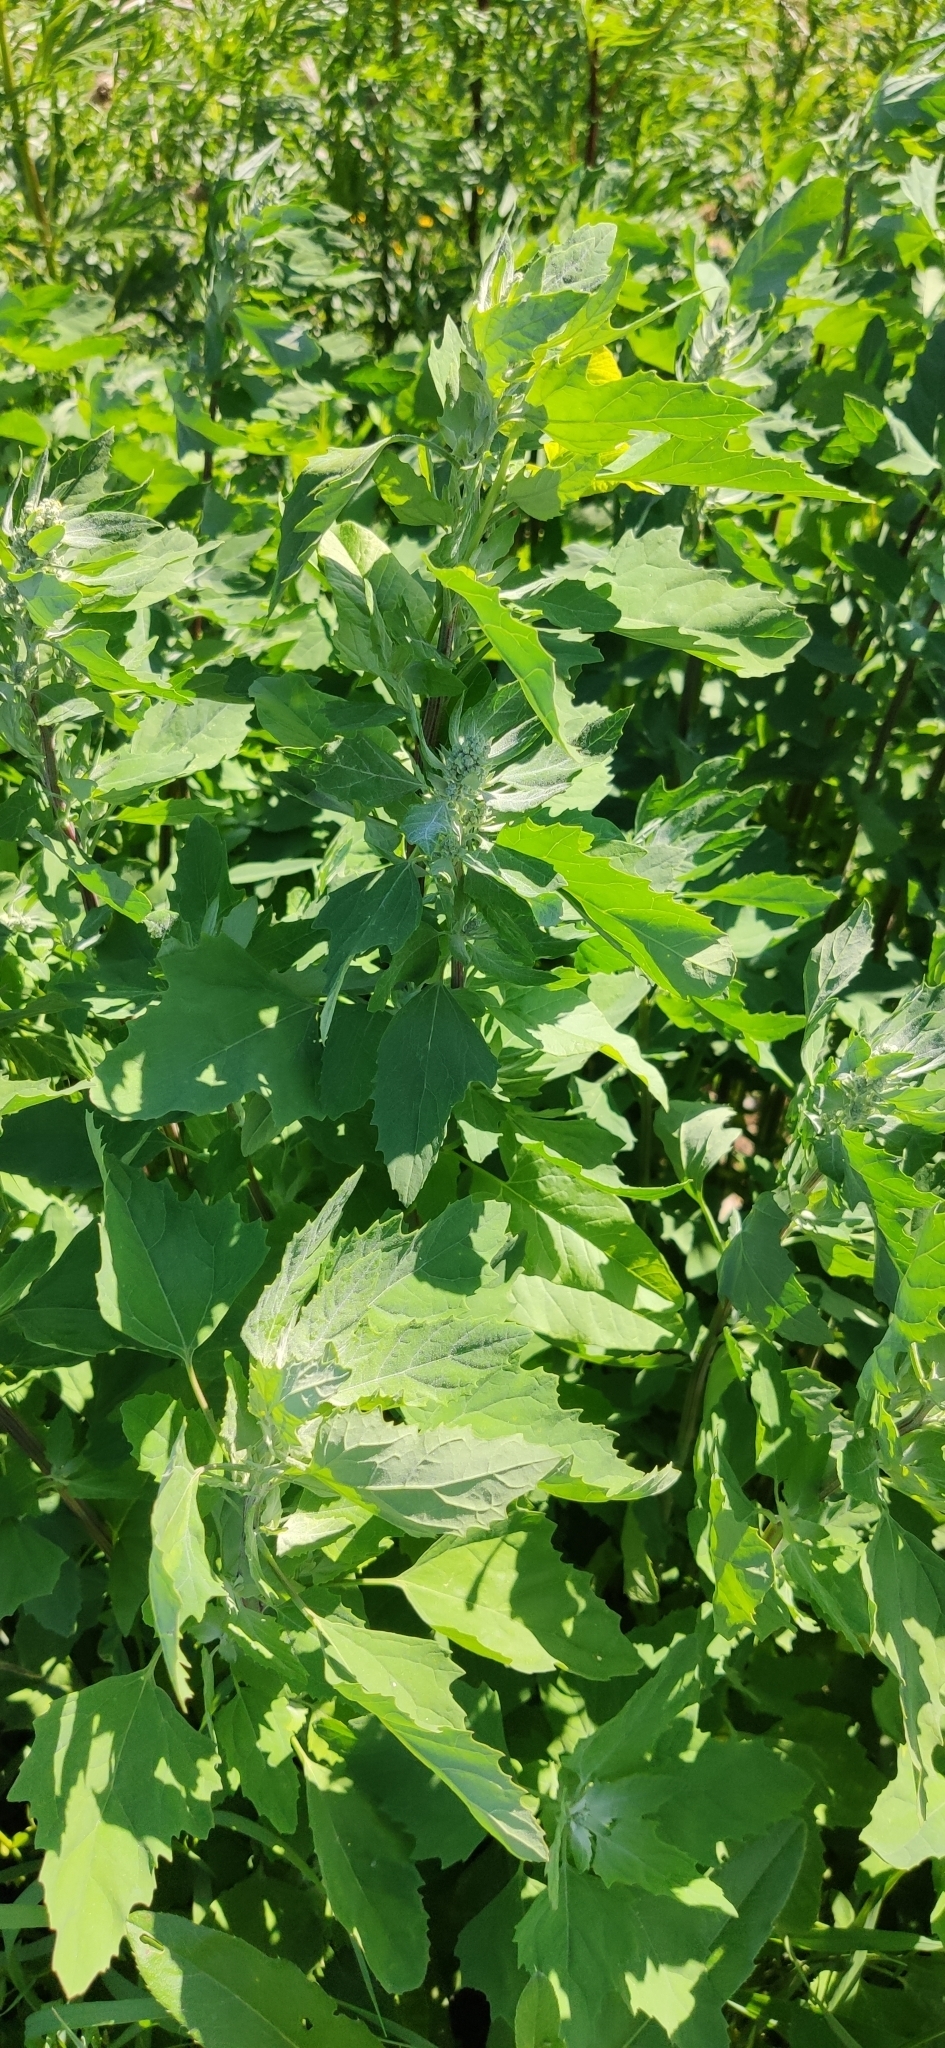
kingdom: Plantae
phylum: Tracheophyta
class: Magnoliopsida
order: Caryophyllales
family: Amaranthaceae
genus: Chenopodium
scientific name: Chenopodium album
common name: Fat-hen
